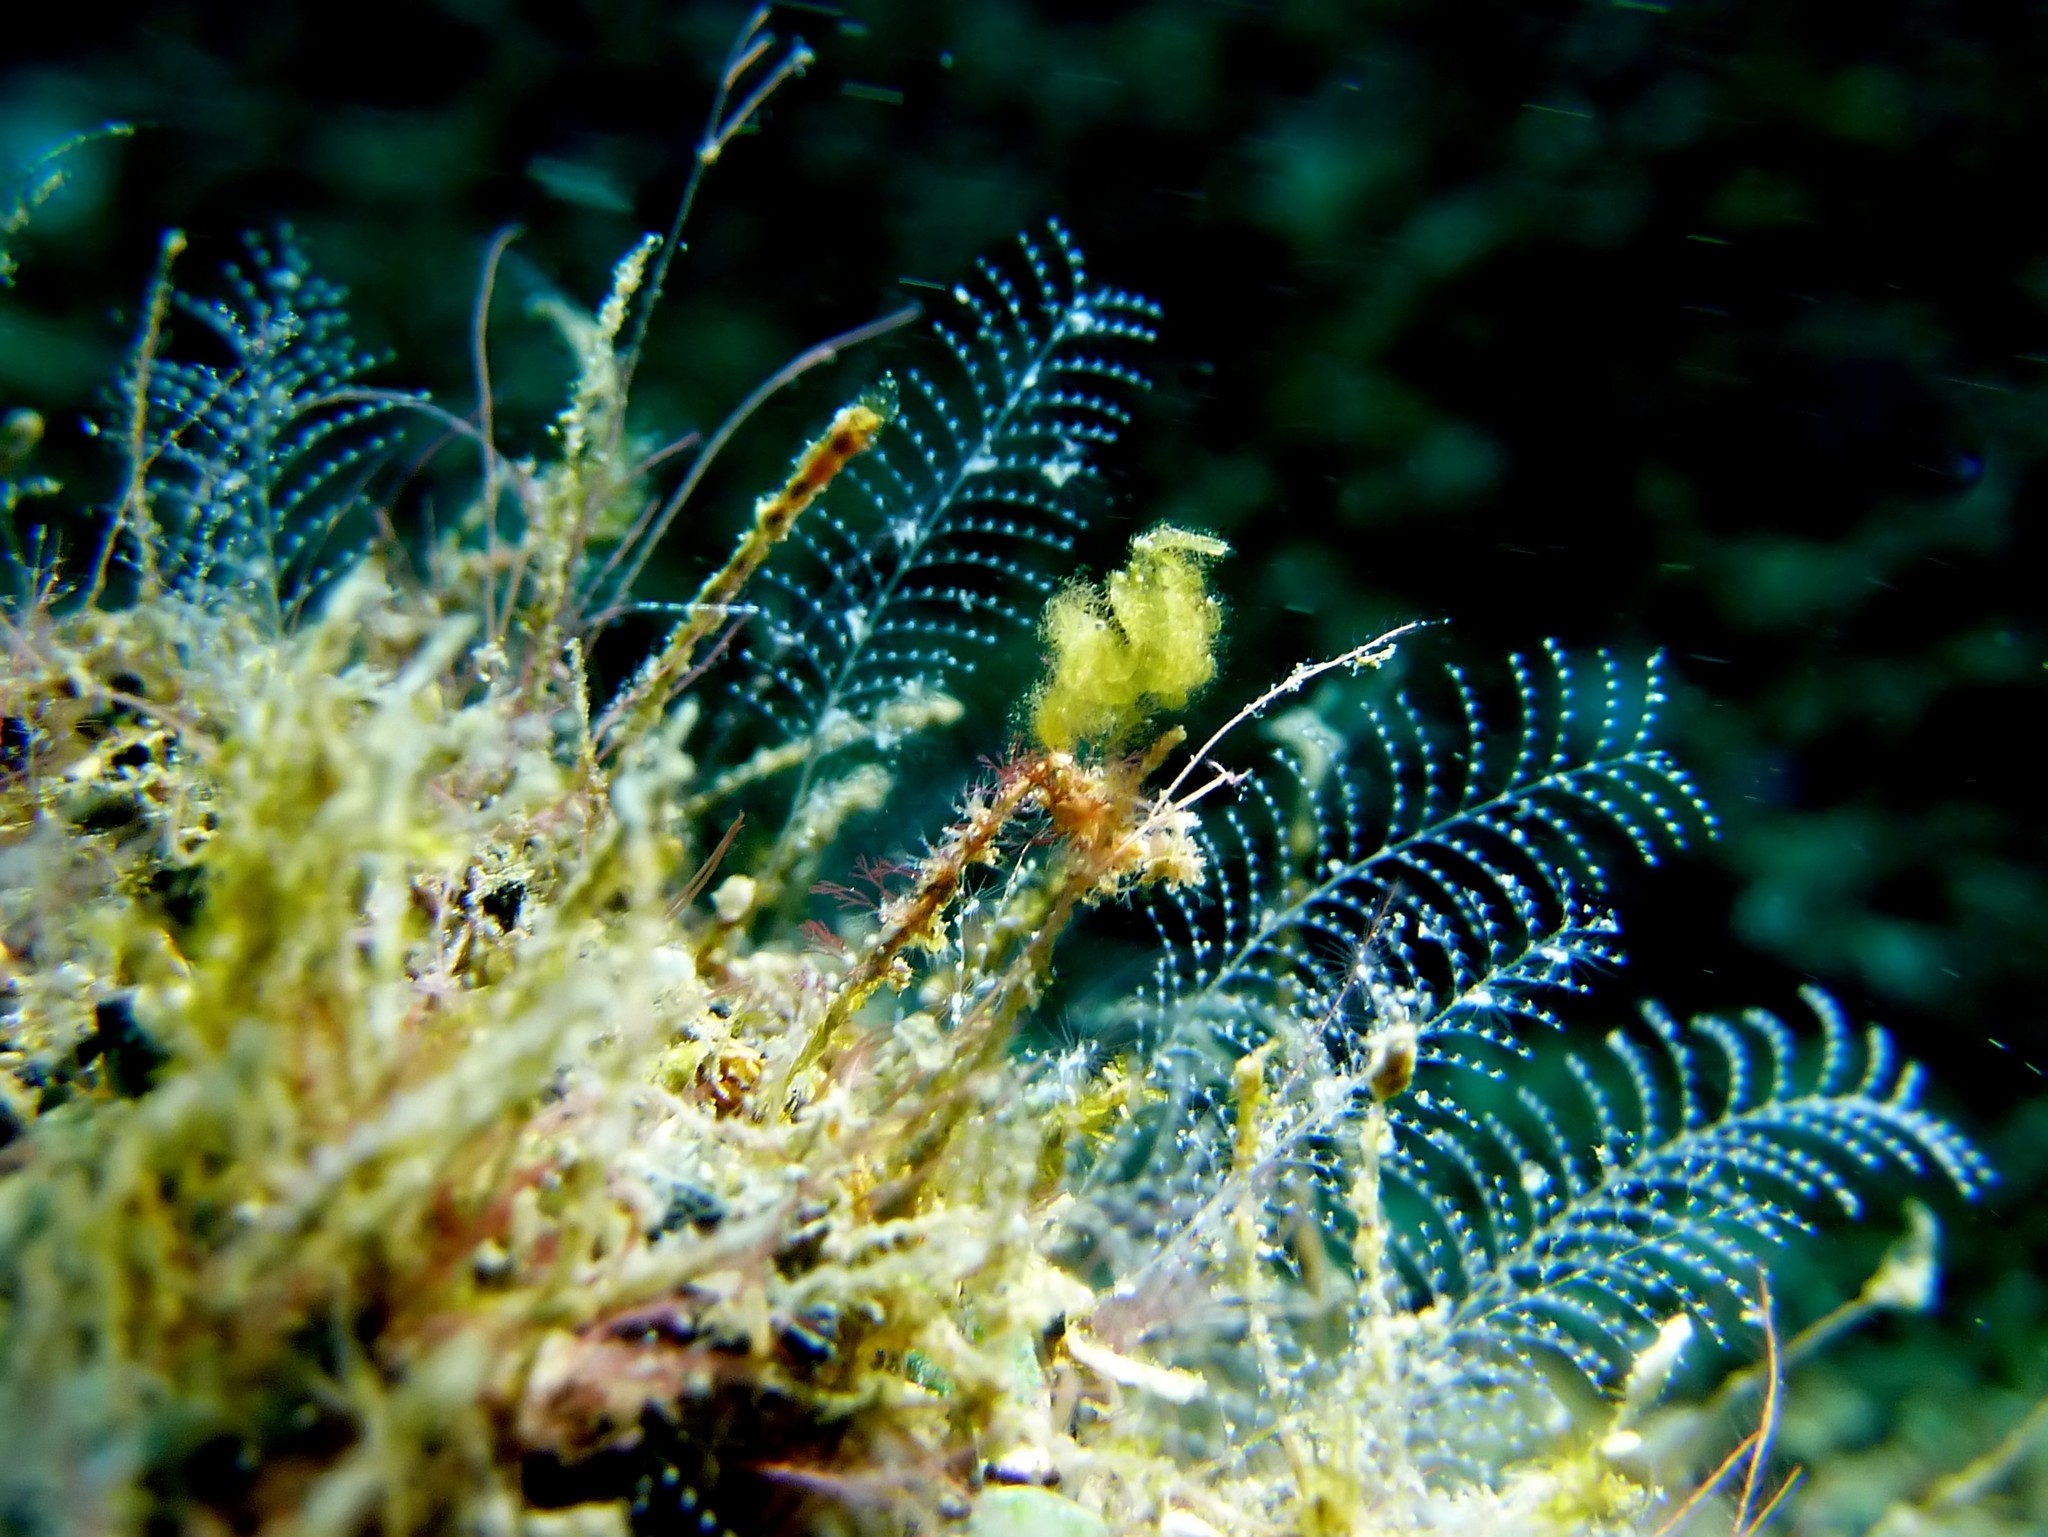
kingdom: Animalia
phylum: Arthropoda
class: Malacostraca
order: Decapoda
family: Hippolytidae
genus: Phycocaris
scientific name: Phycocaris simulans
